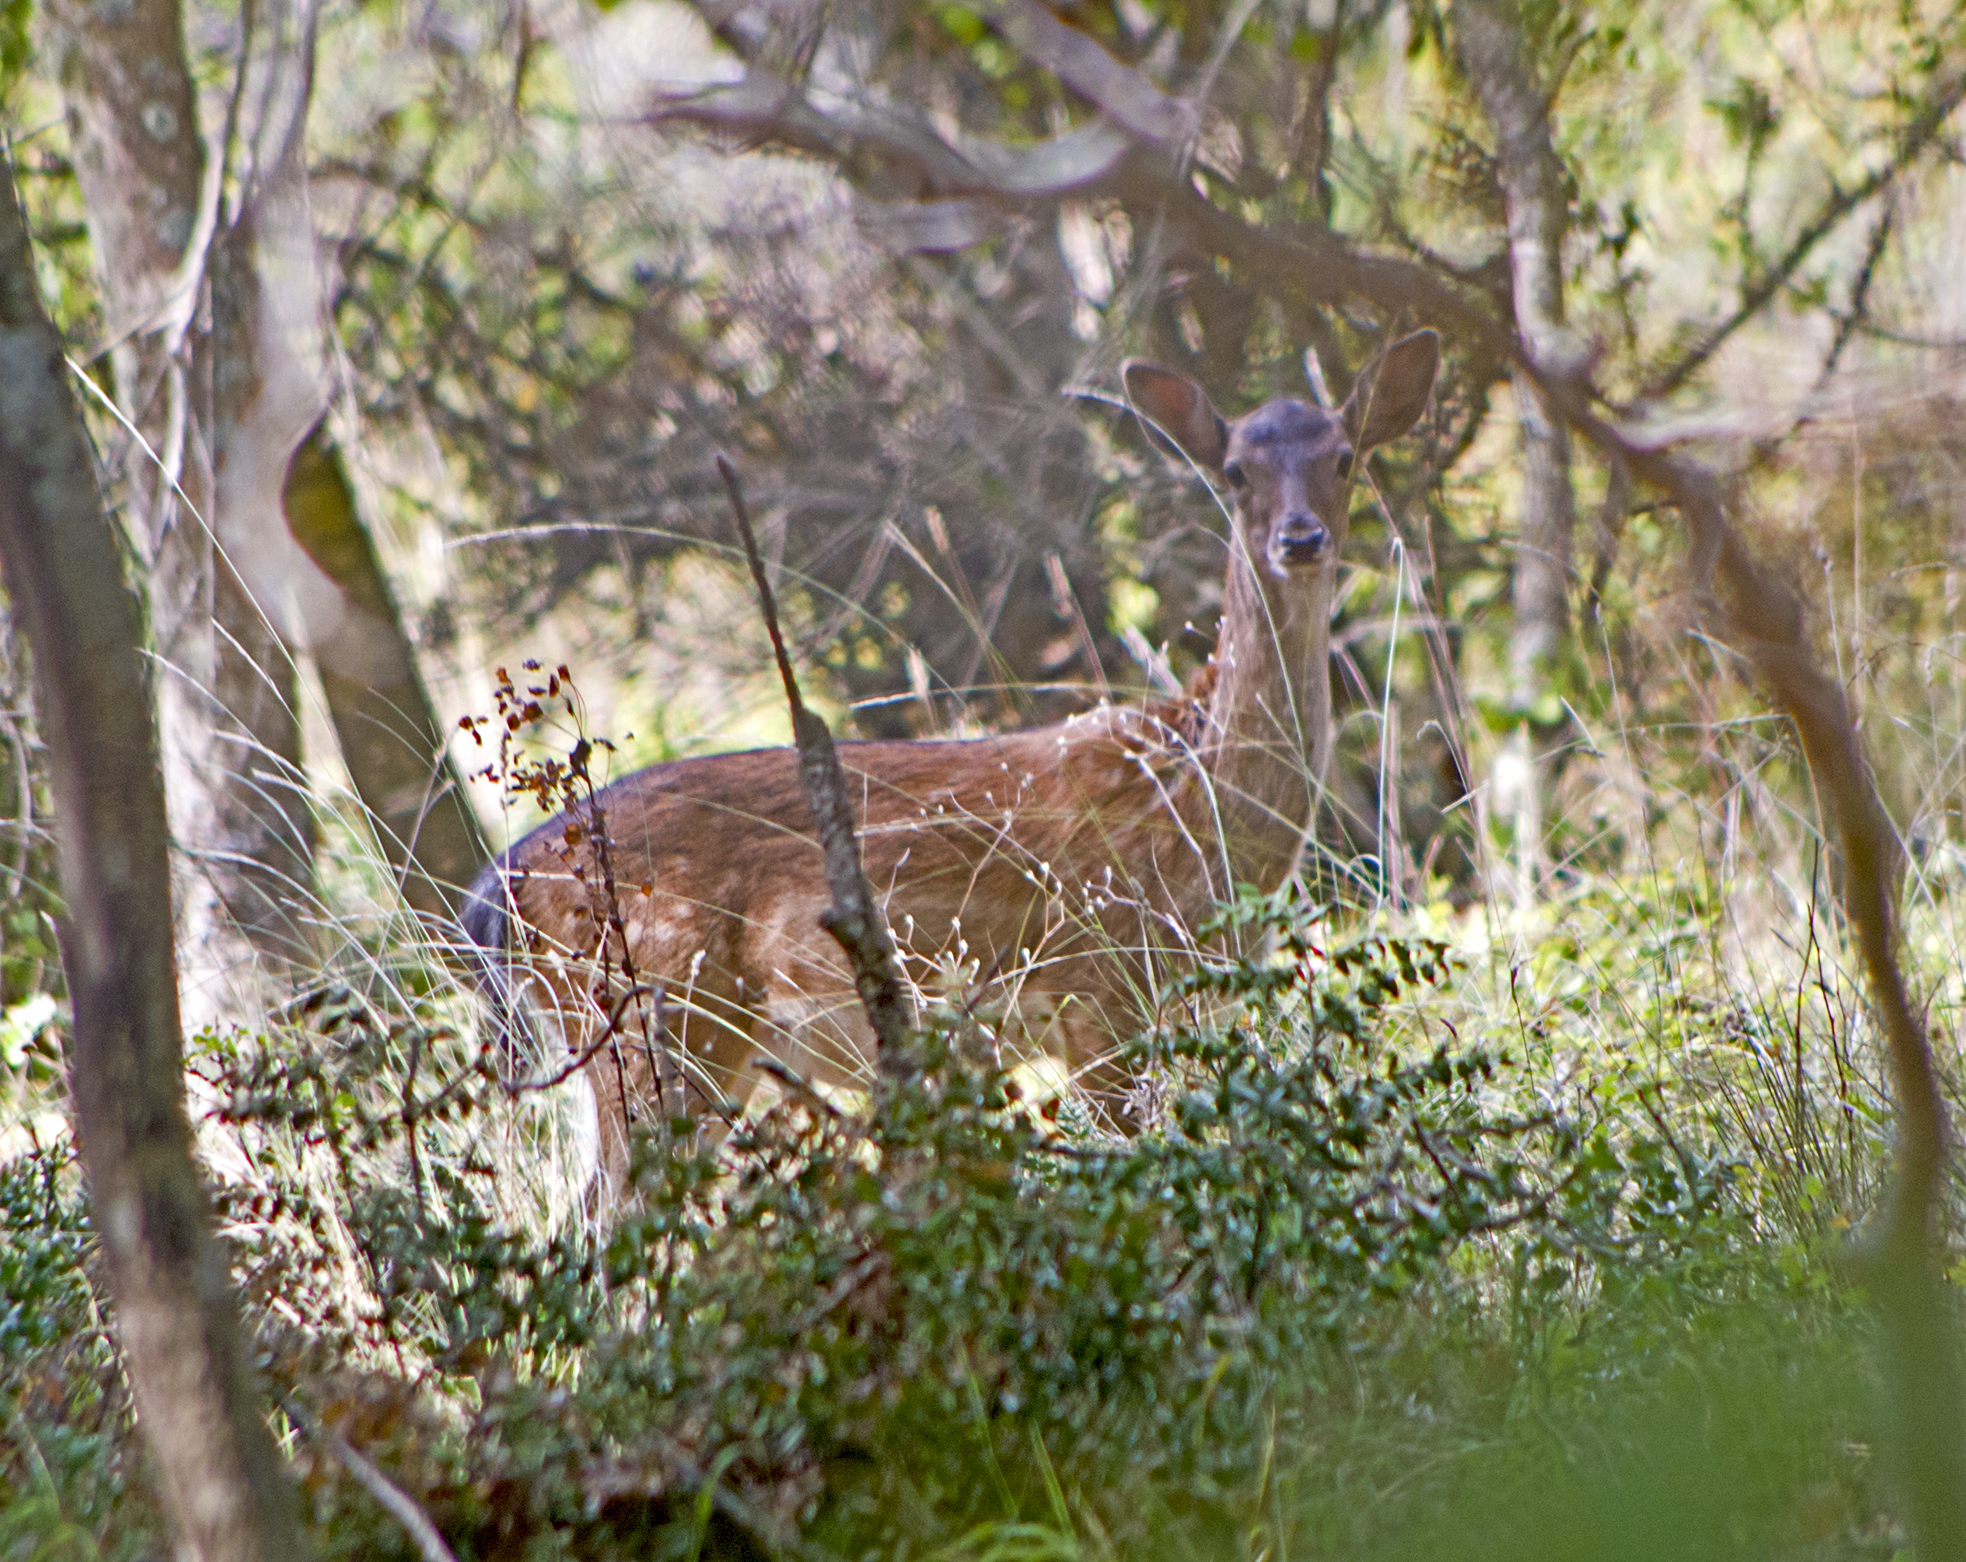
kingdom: Animalia
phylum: Chordata
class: Mammalia
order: Artiodactyla
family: Cervidae
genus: Dama
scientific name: Dama dama
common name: Fallow deer
